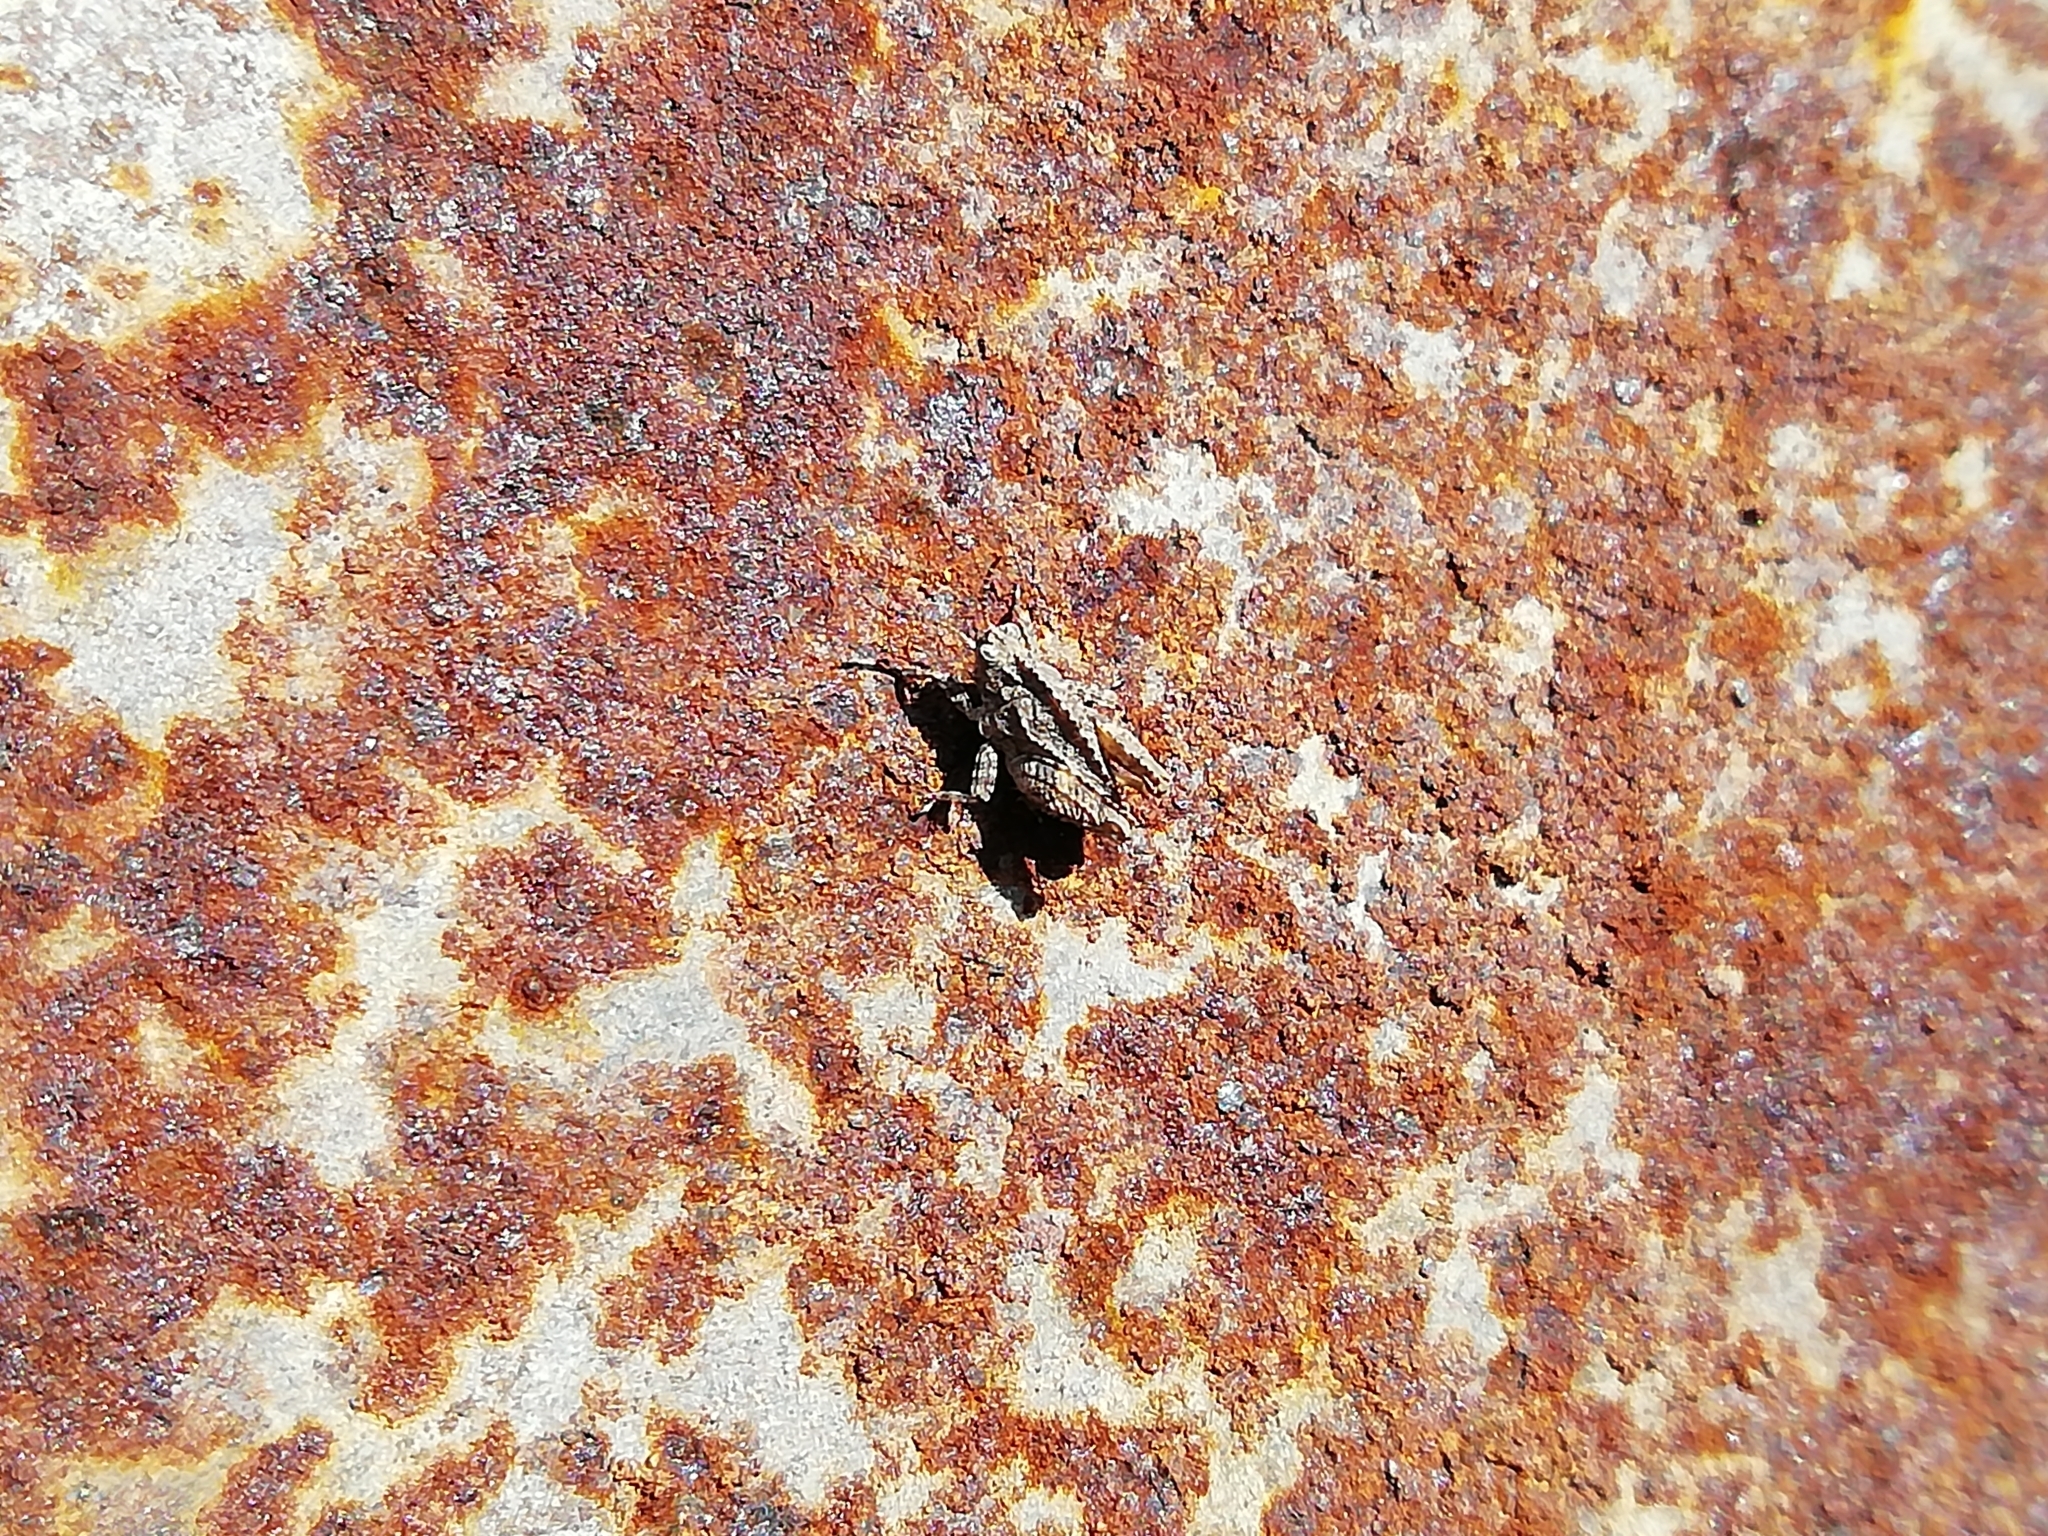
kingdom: Animalia
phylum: Arthropoda
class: Insecta
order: Orthoptera
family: Tetrigidae
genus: Tetrix
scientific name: Tetrix tenuicornis
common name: Long-horned groundhopper
